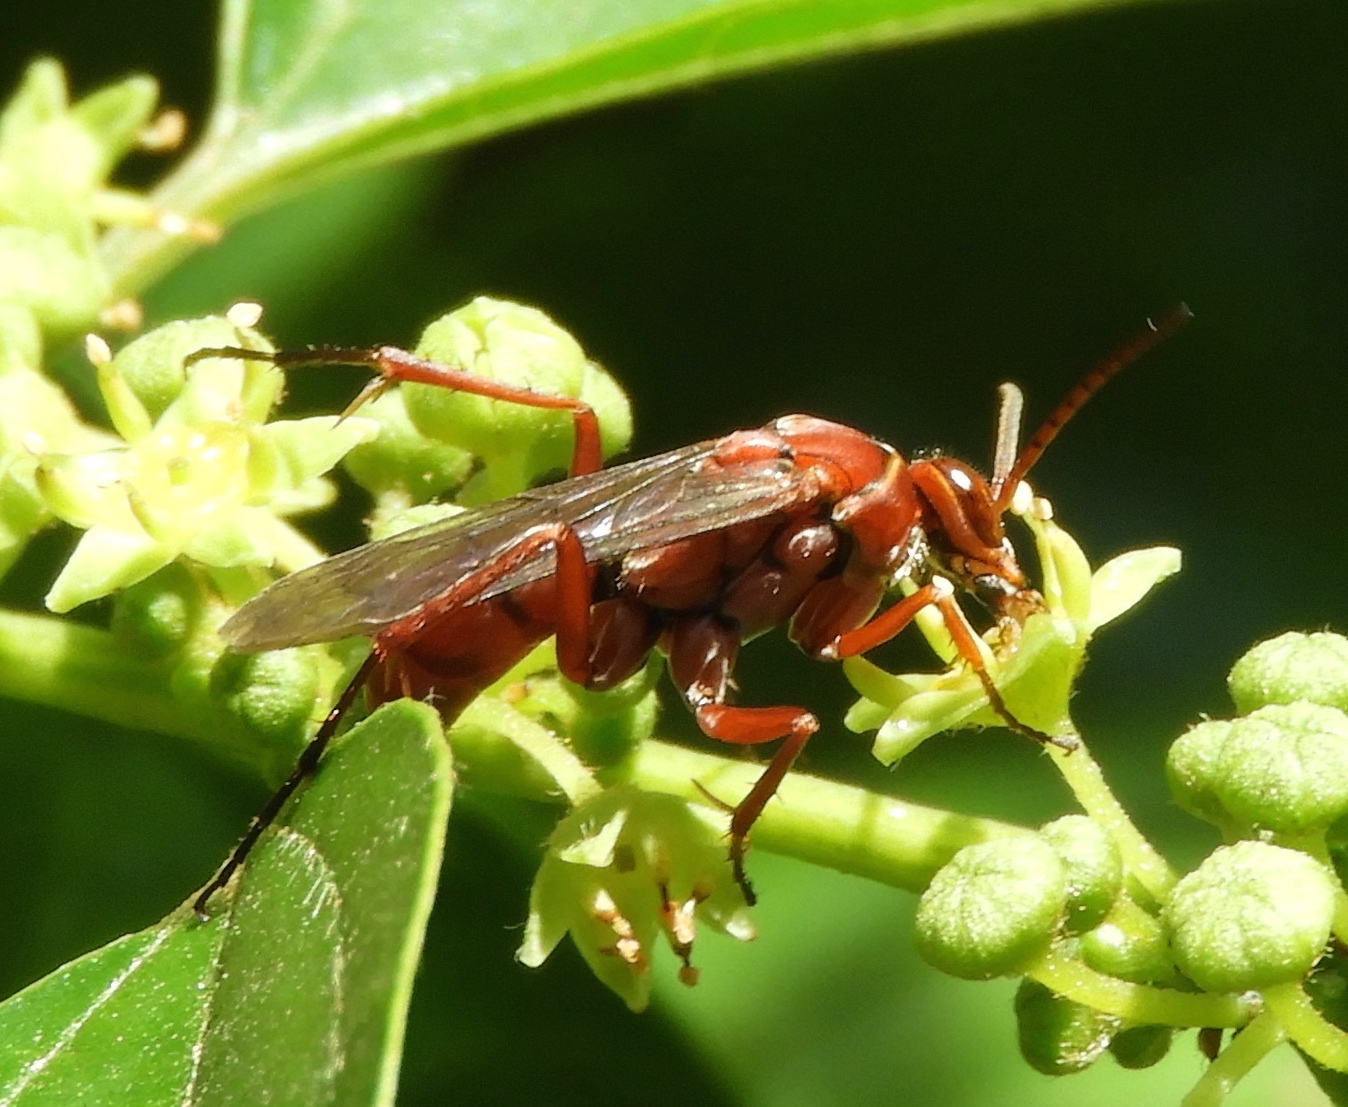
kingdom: Animalia
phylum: Arthropoda
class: Insecta
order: Hymenoptera
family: Pompilidae
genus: Tachypompilus
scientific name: Tachypompilus
